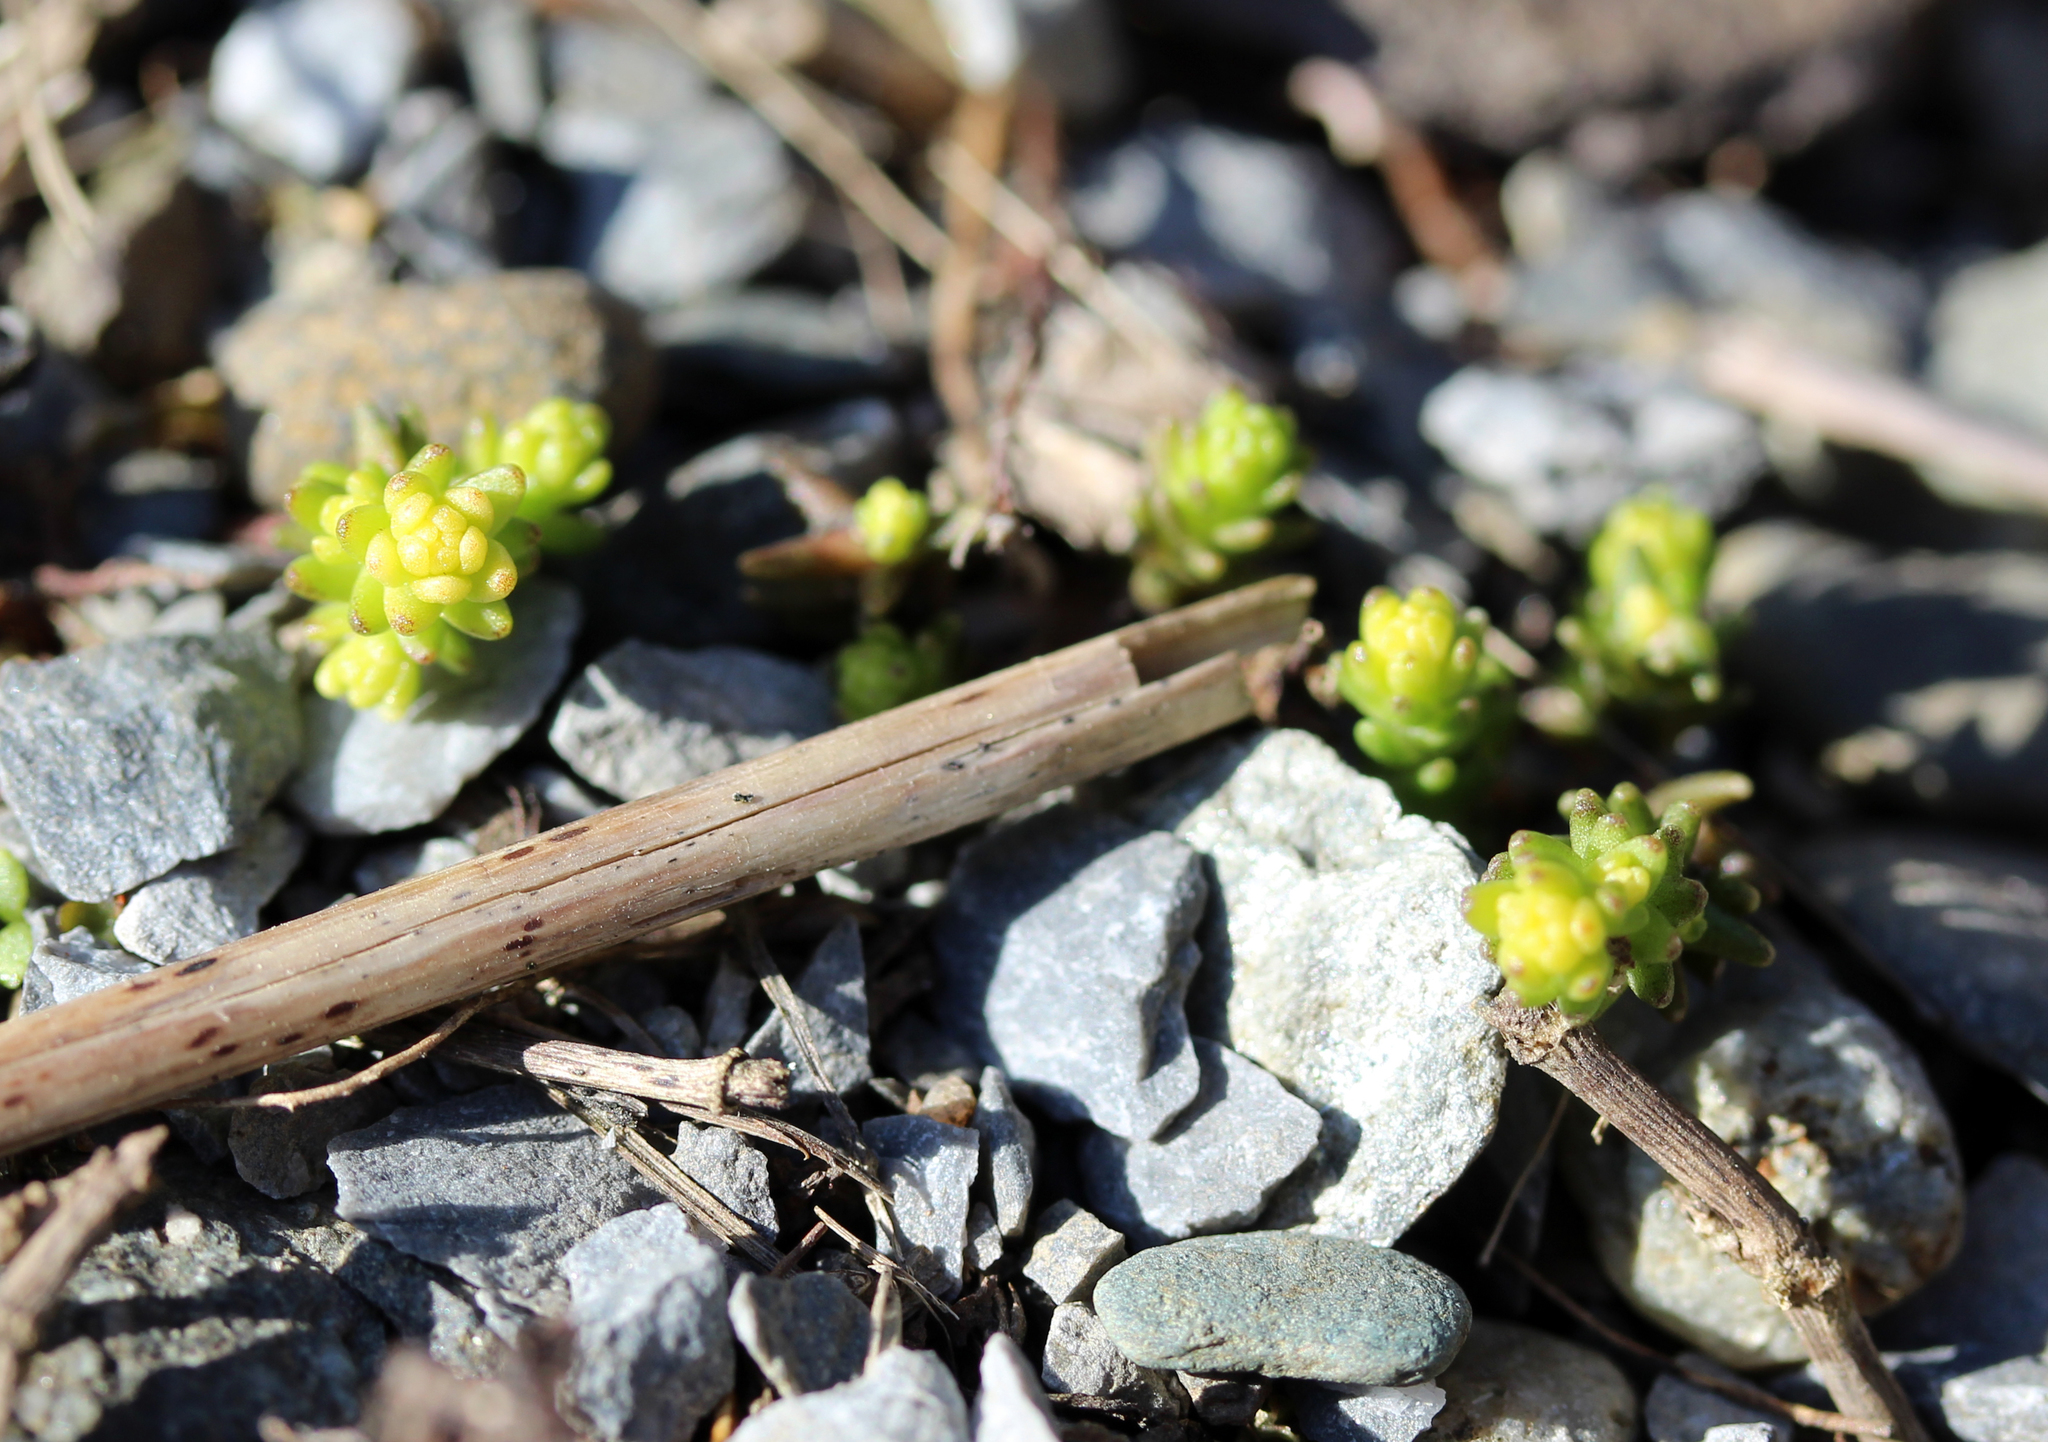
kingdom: Plantae
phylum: Tracheophyta
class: Magnoliopsida
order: Saxifragales
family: Crassulaceae
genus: Sedum
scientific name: Sedum acre
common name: Biting stonecrop
